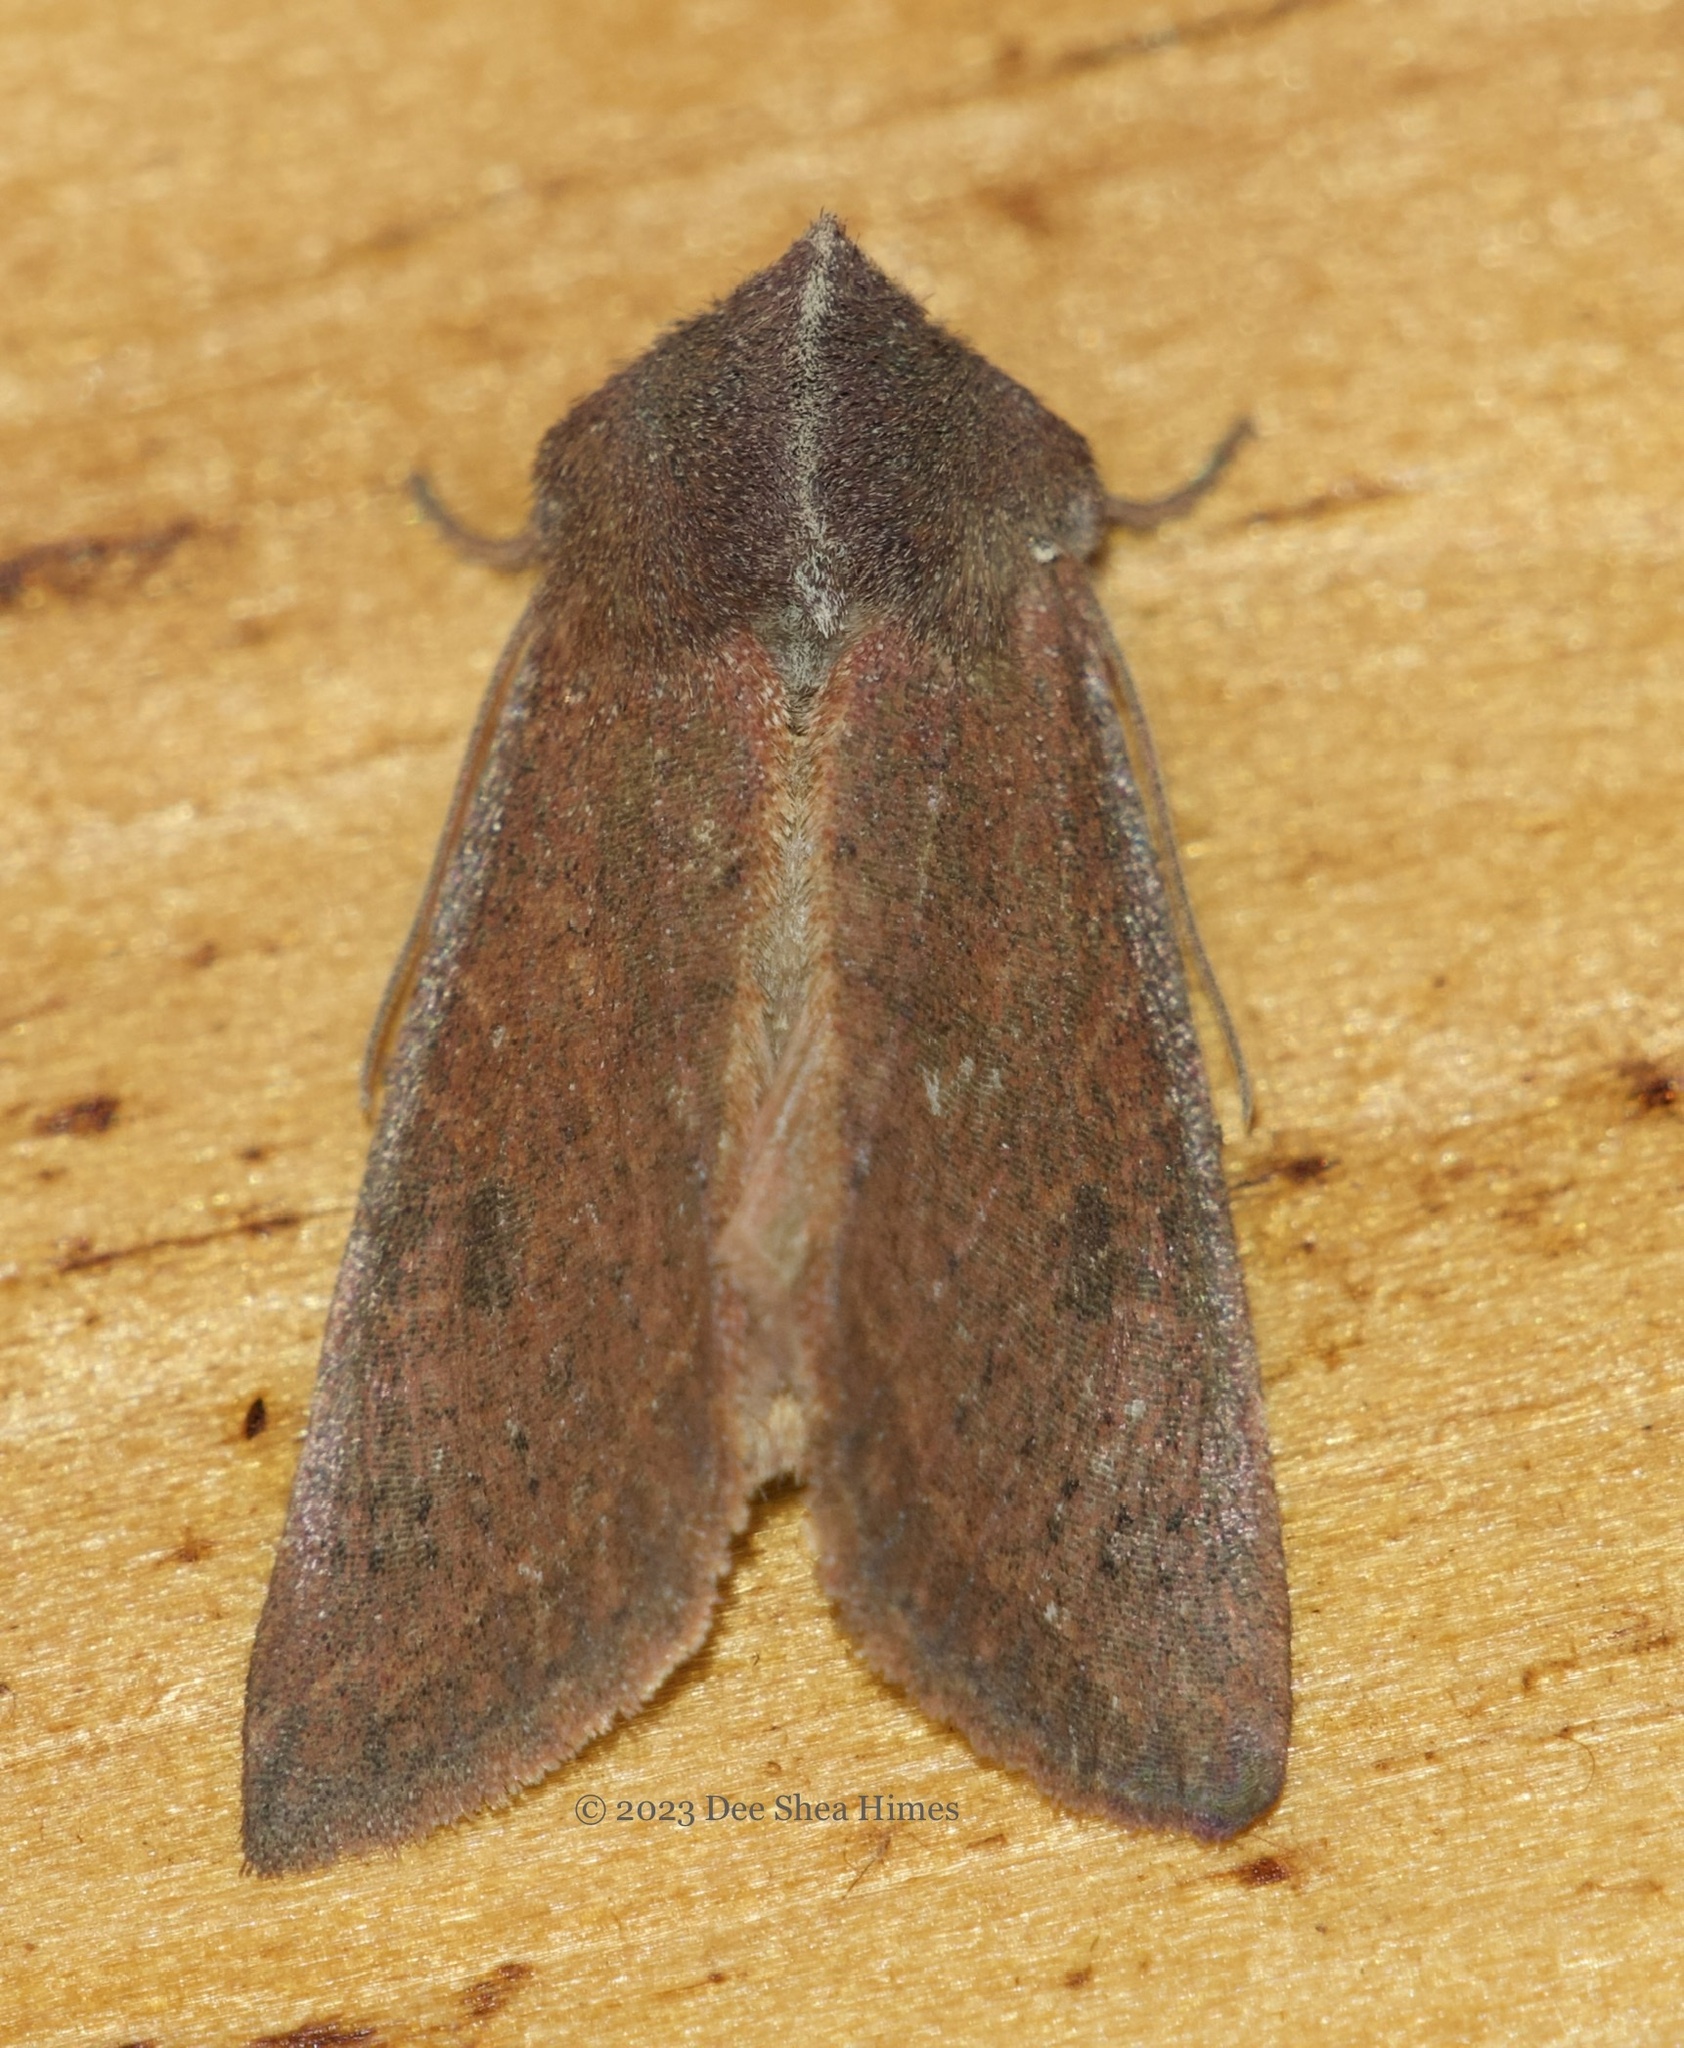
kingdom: Animalia
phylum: Arthropoda
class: Insecta
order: Lepidoptera
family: Noctuidae
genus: Orthosia
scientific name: Orthosia transparens
